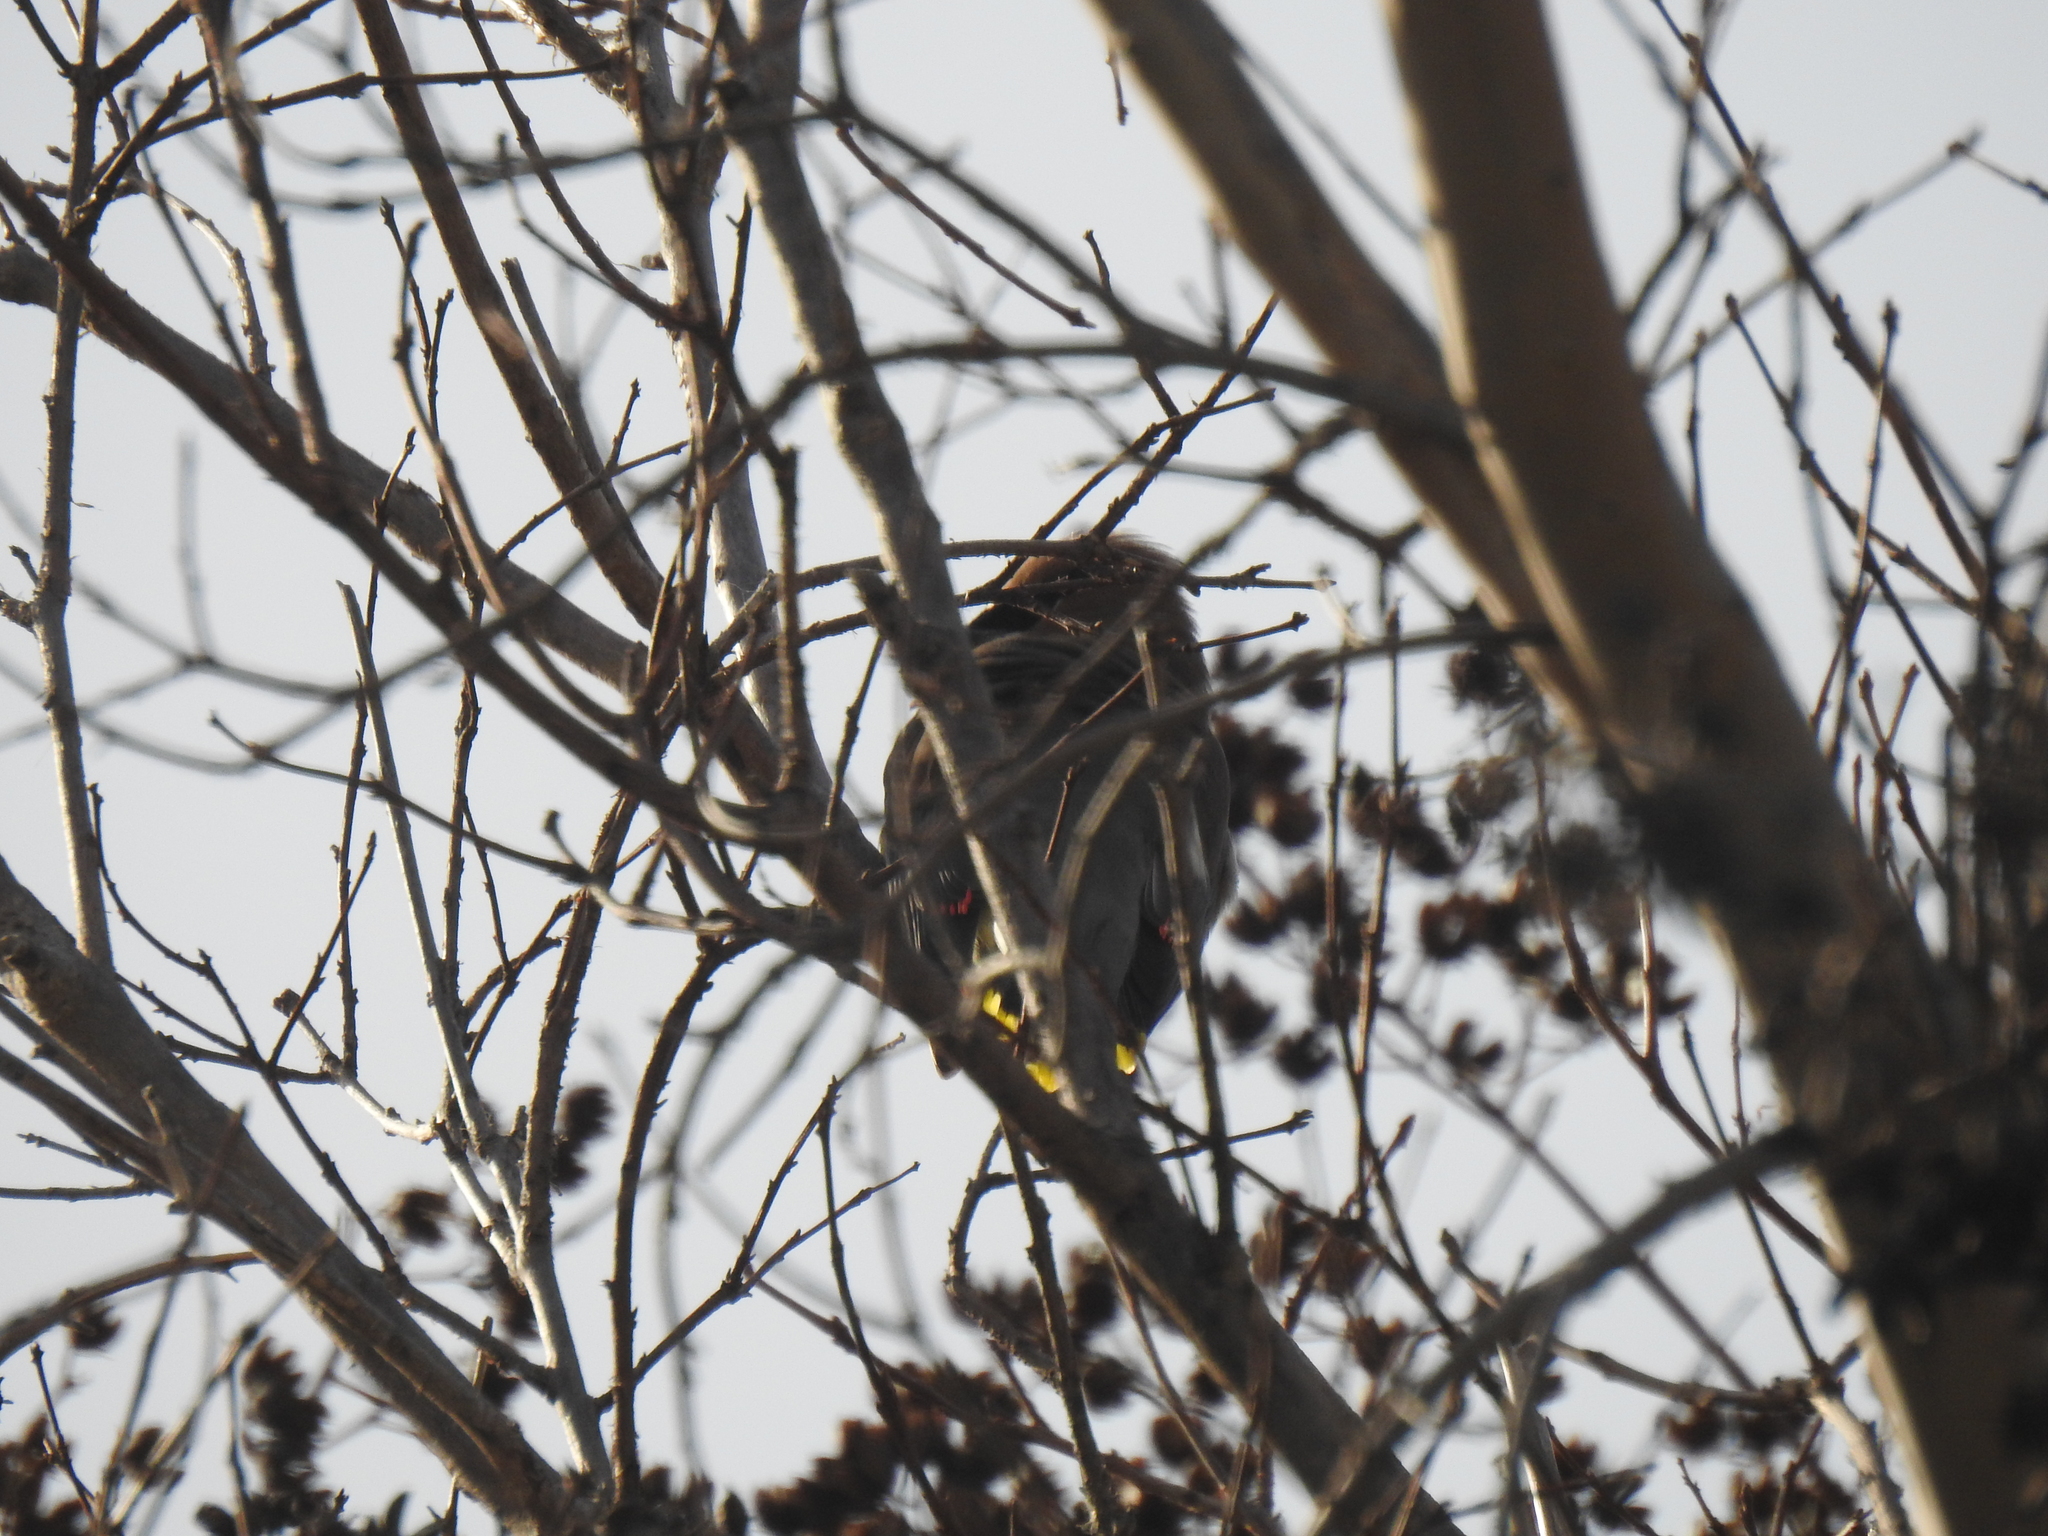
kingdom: Animalia
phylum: Chordata
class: Aves
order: Passeriformes
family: Bombycillidae
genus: Bombycilla
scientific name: Bombycilla cedrorum
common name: Cedar waxwing
